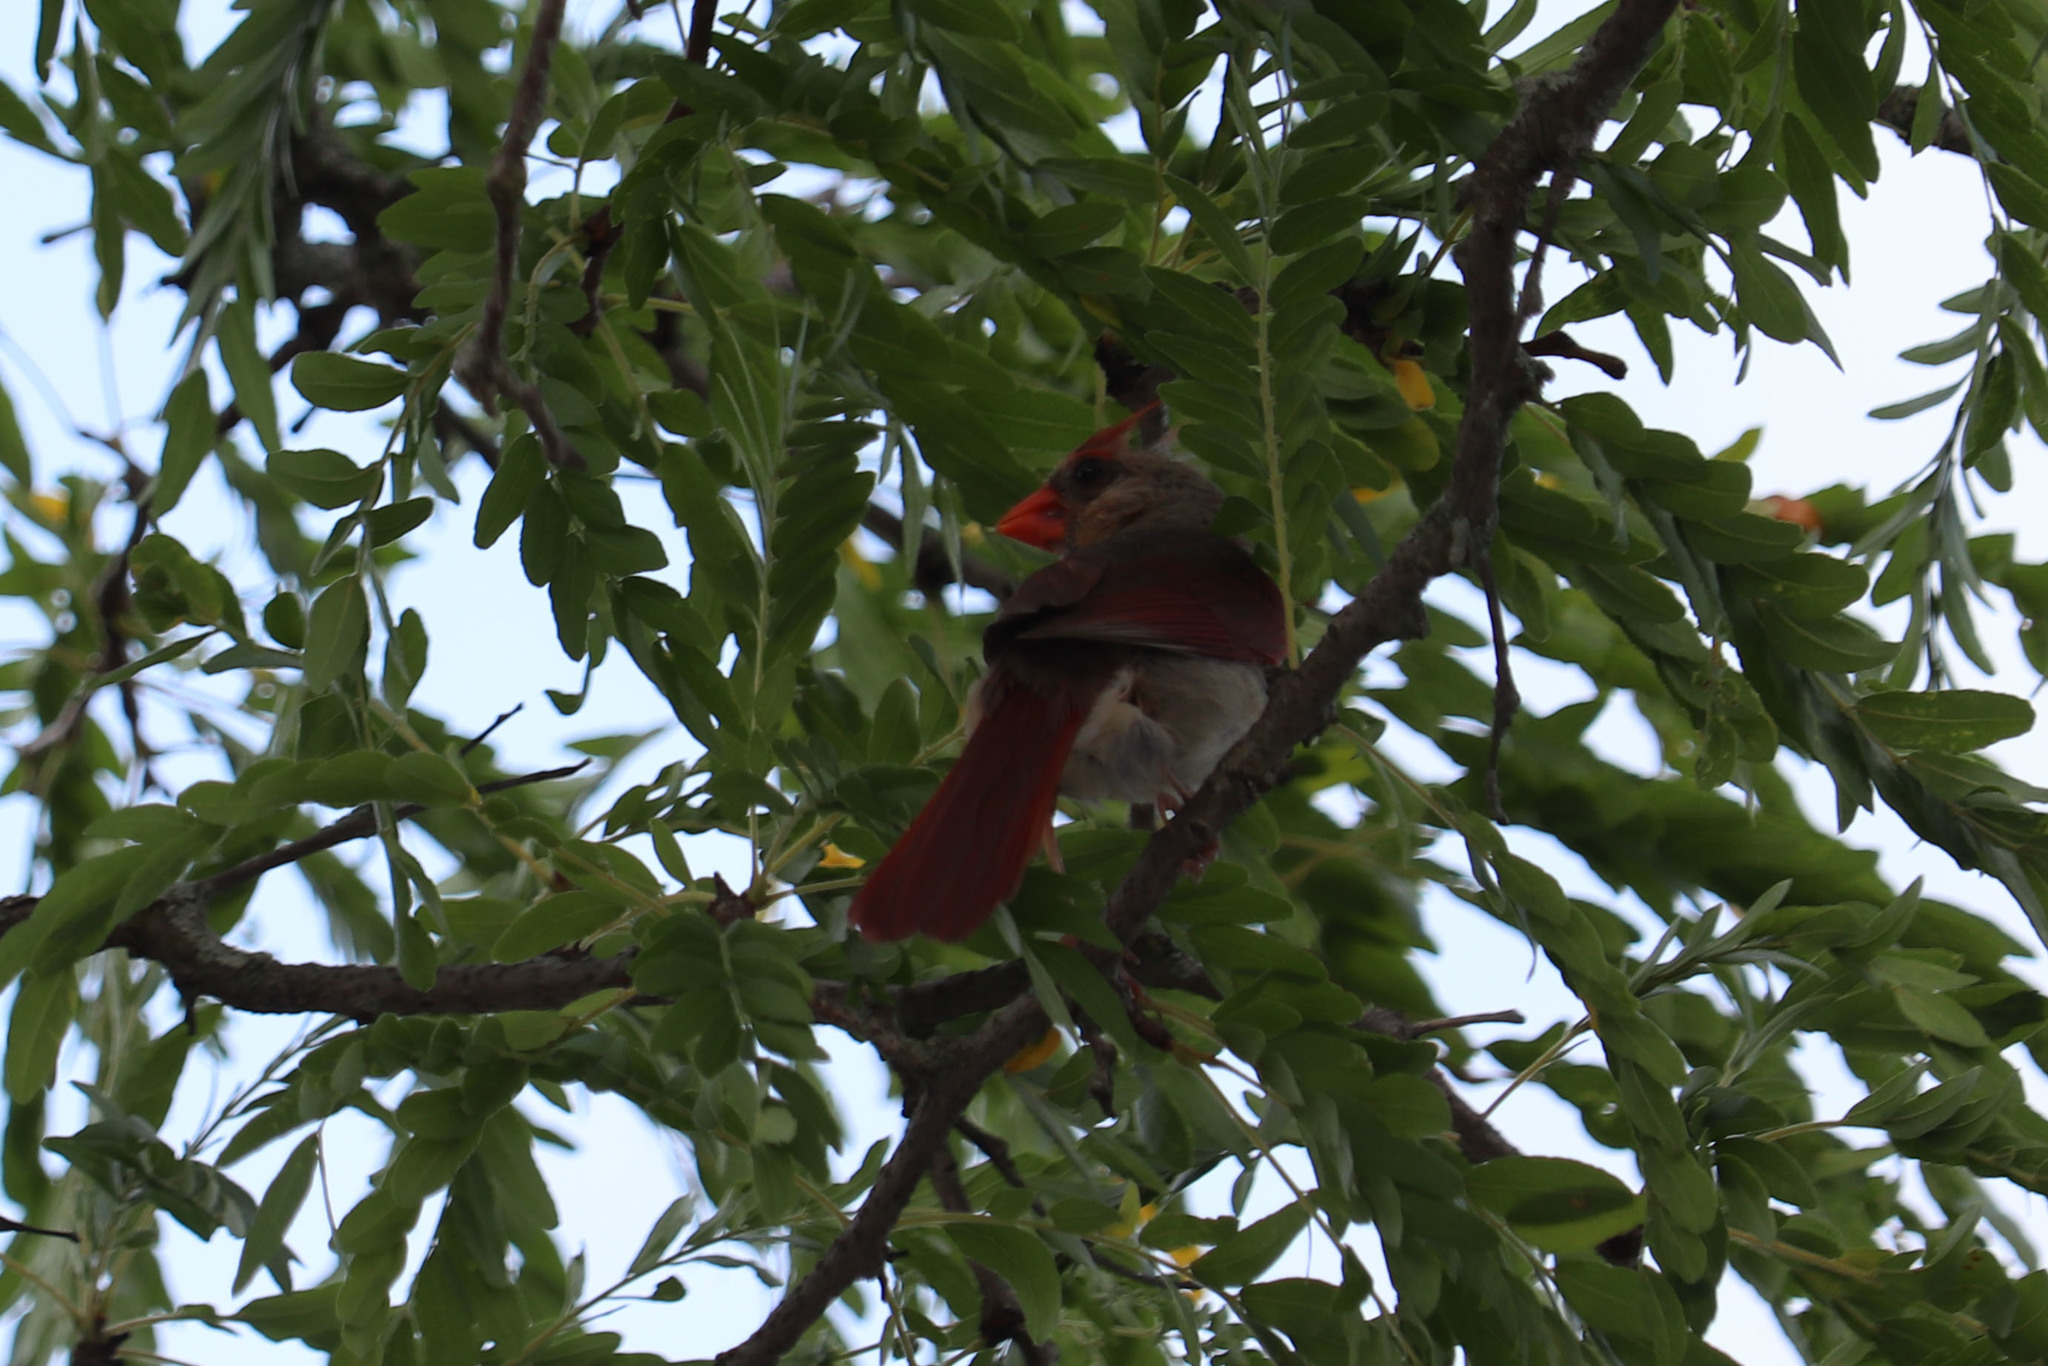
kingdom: Animalia
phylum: Chordata
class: Aves
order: Passeriformes
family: Cardinalidae
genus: Cardinalis
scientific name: Cardinalis cardinalis
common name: Northern cardinal
